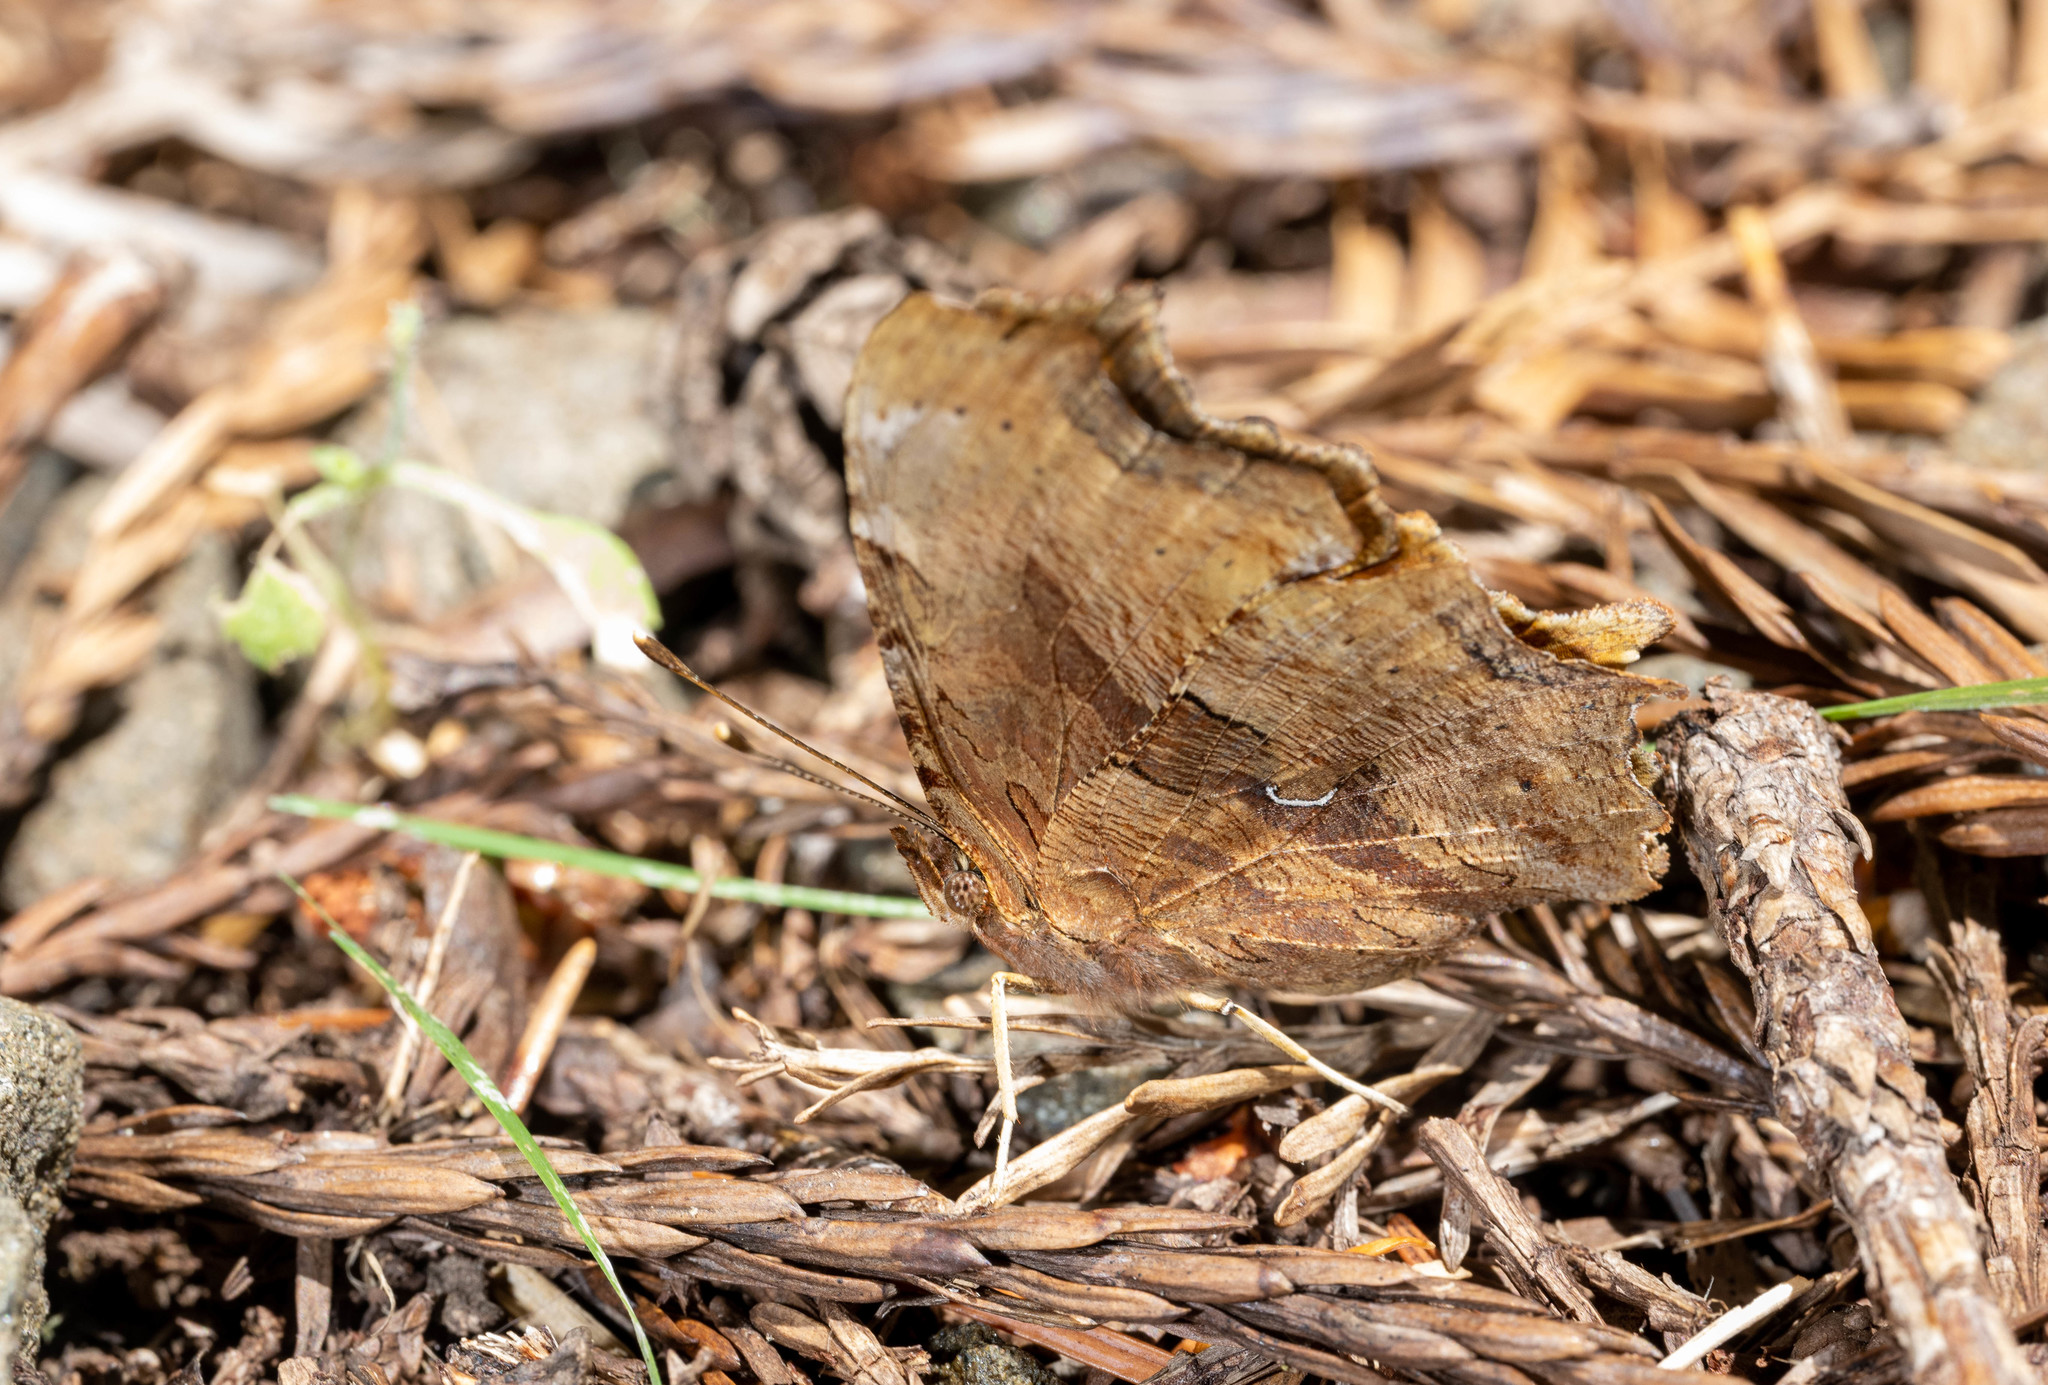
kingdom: Animalia
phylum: Arthropoda
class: Insecta
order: Lepidoptera
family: Nymphalidae
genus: Polygonia
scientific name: Polygonia satyrus
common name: Satyr angle wing
